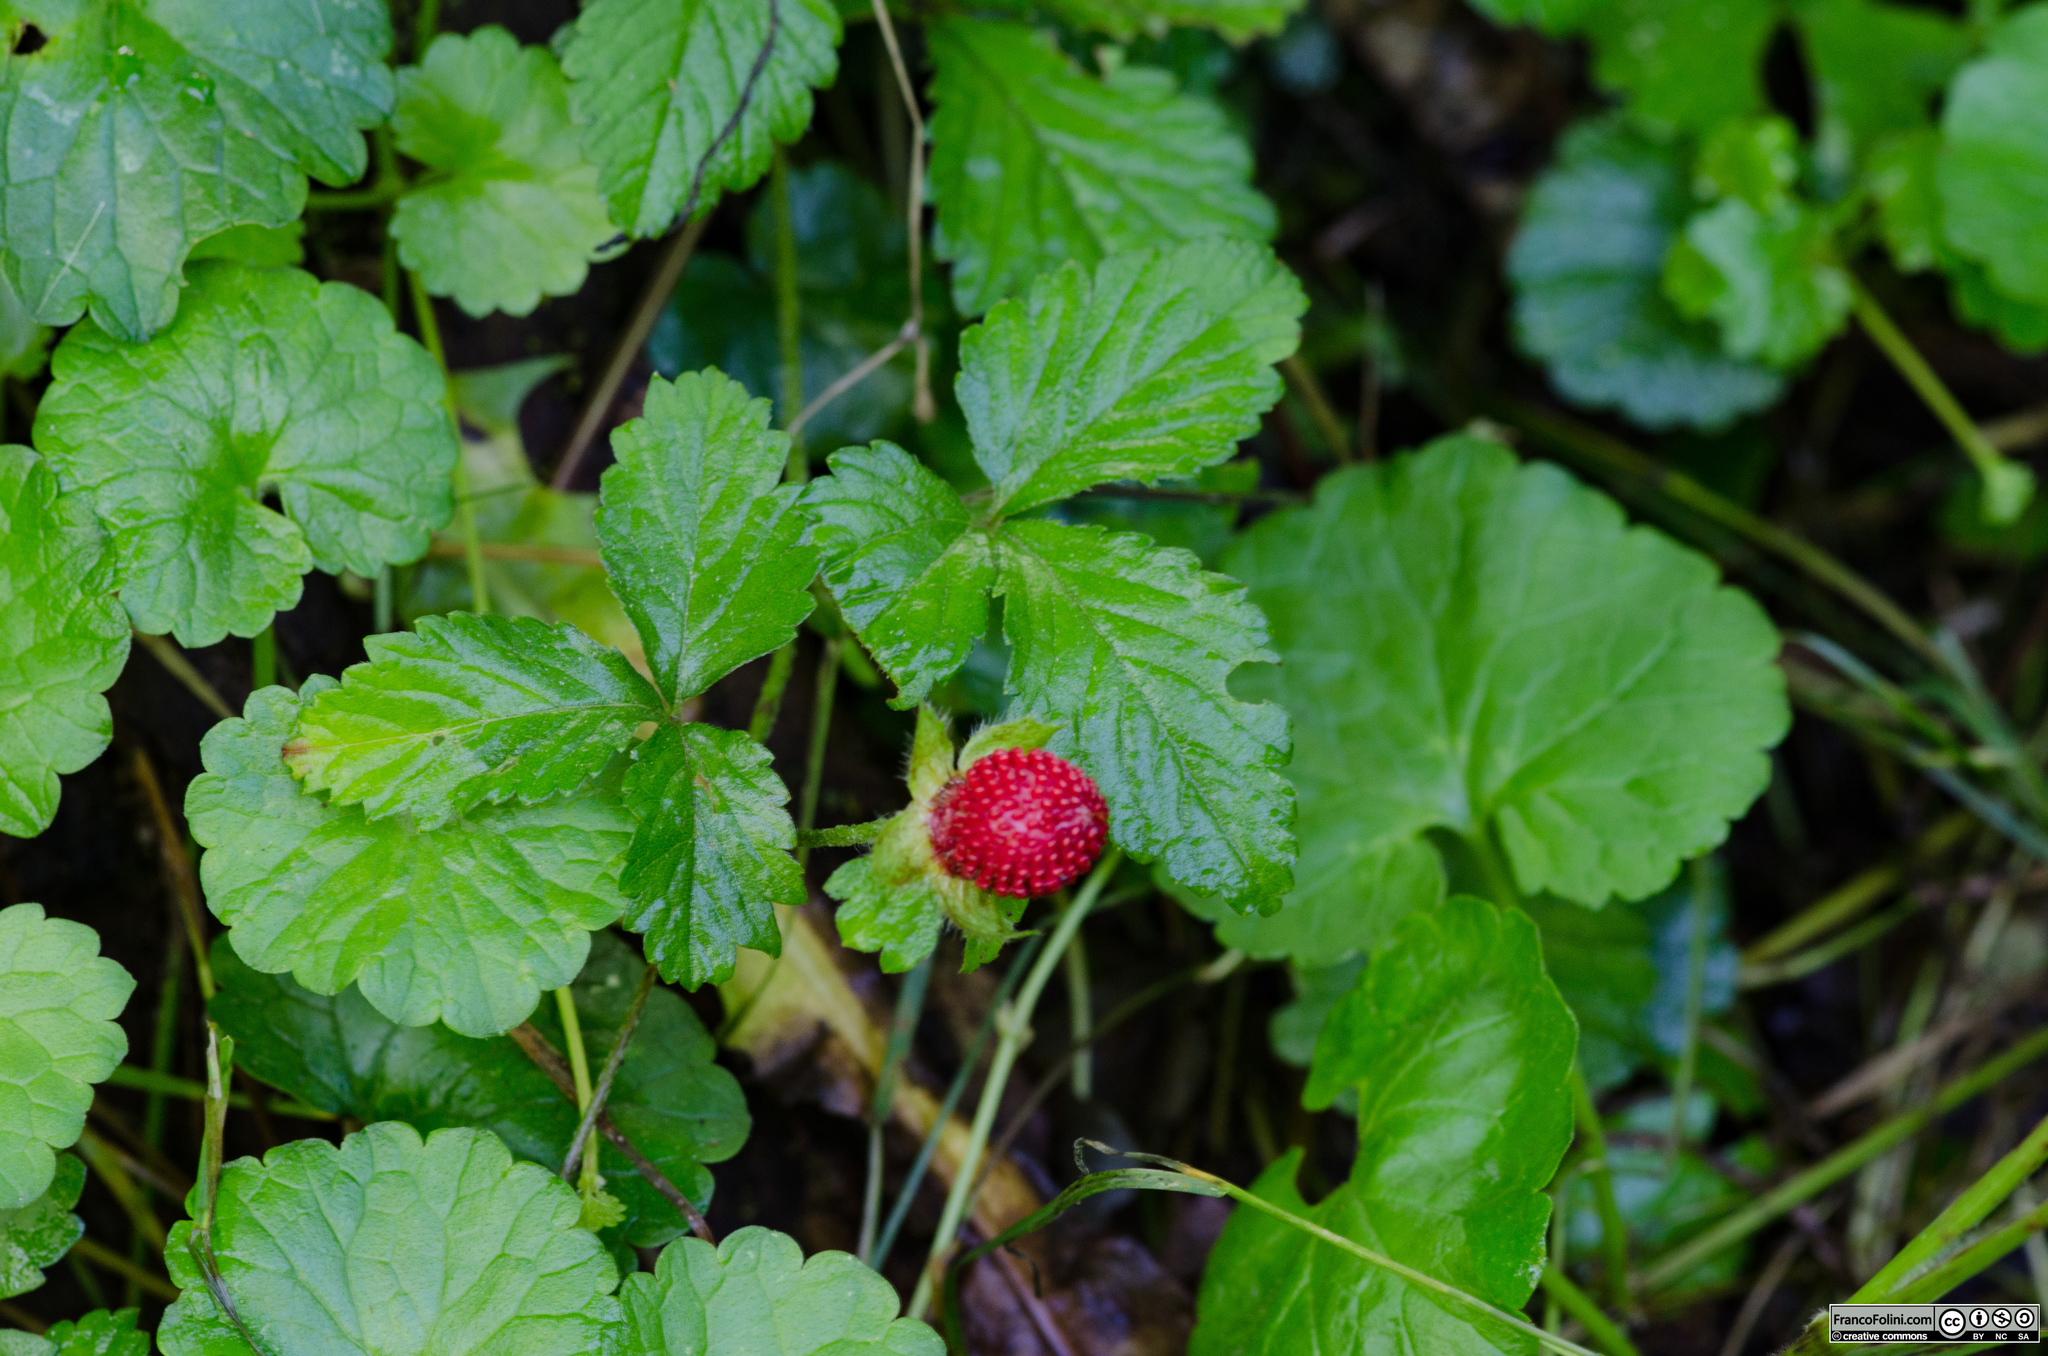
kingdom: Plantae
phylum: Tracheophyta
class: Magnoliopsida
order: Rosales
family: Rosaceae
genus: Potentilla
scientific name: Potentilla indica
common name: Yellow-flowered strawberry
